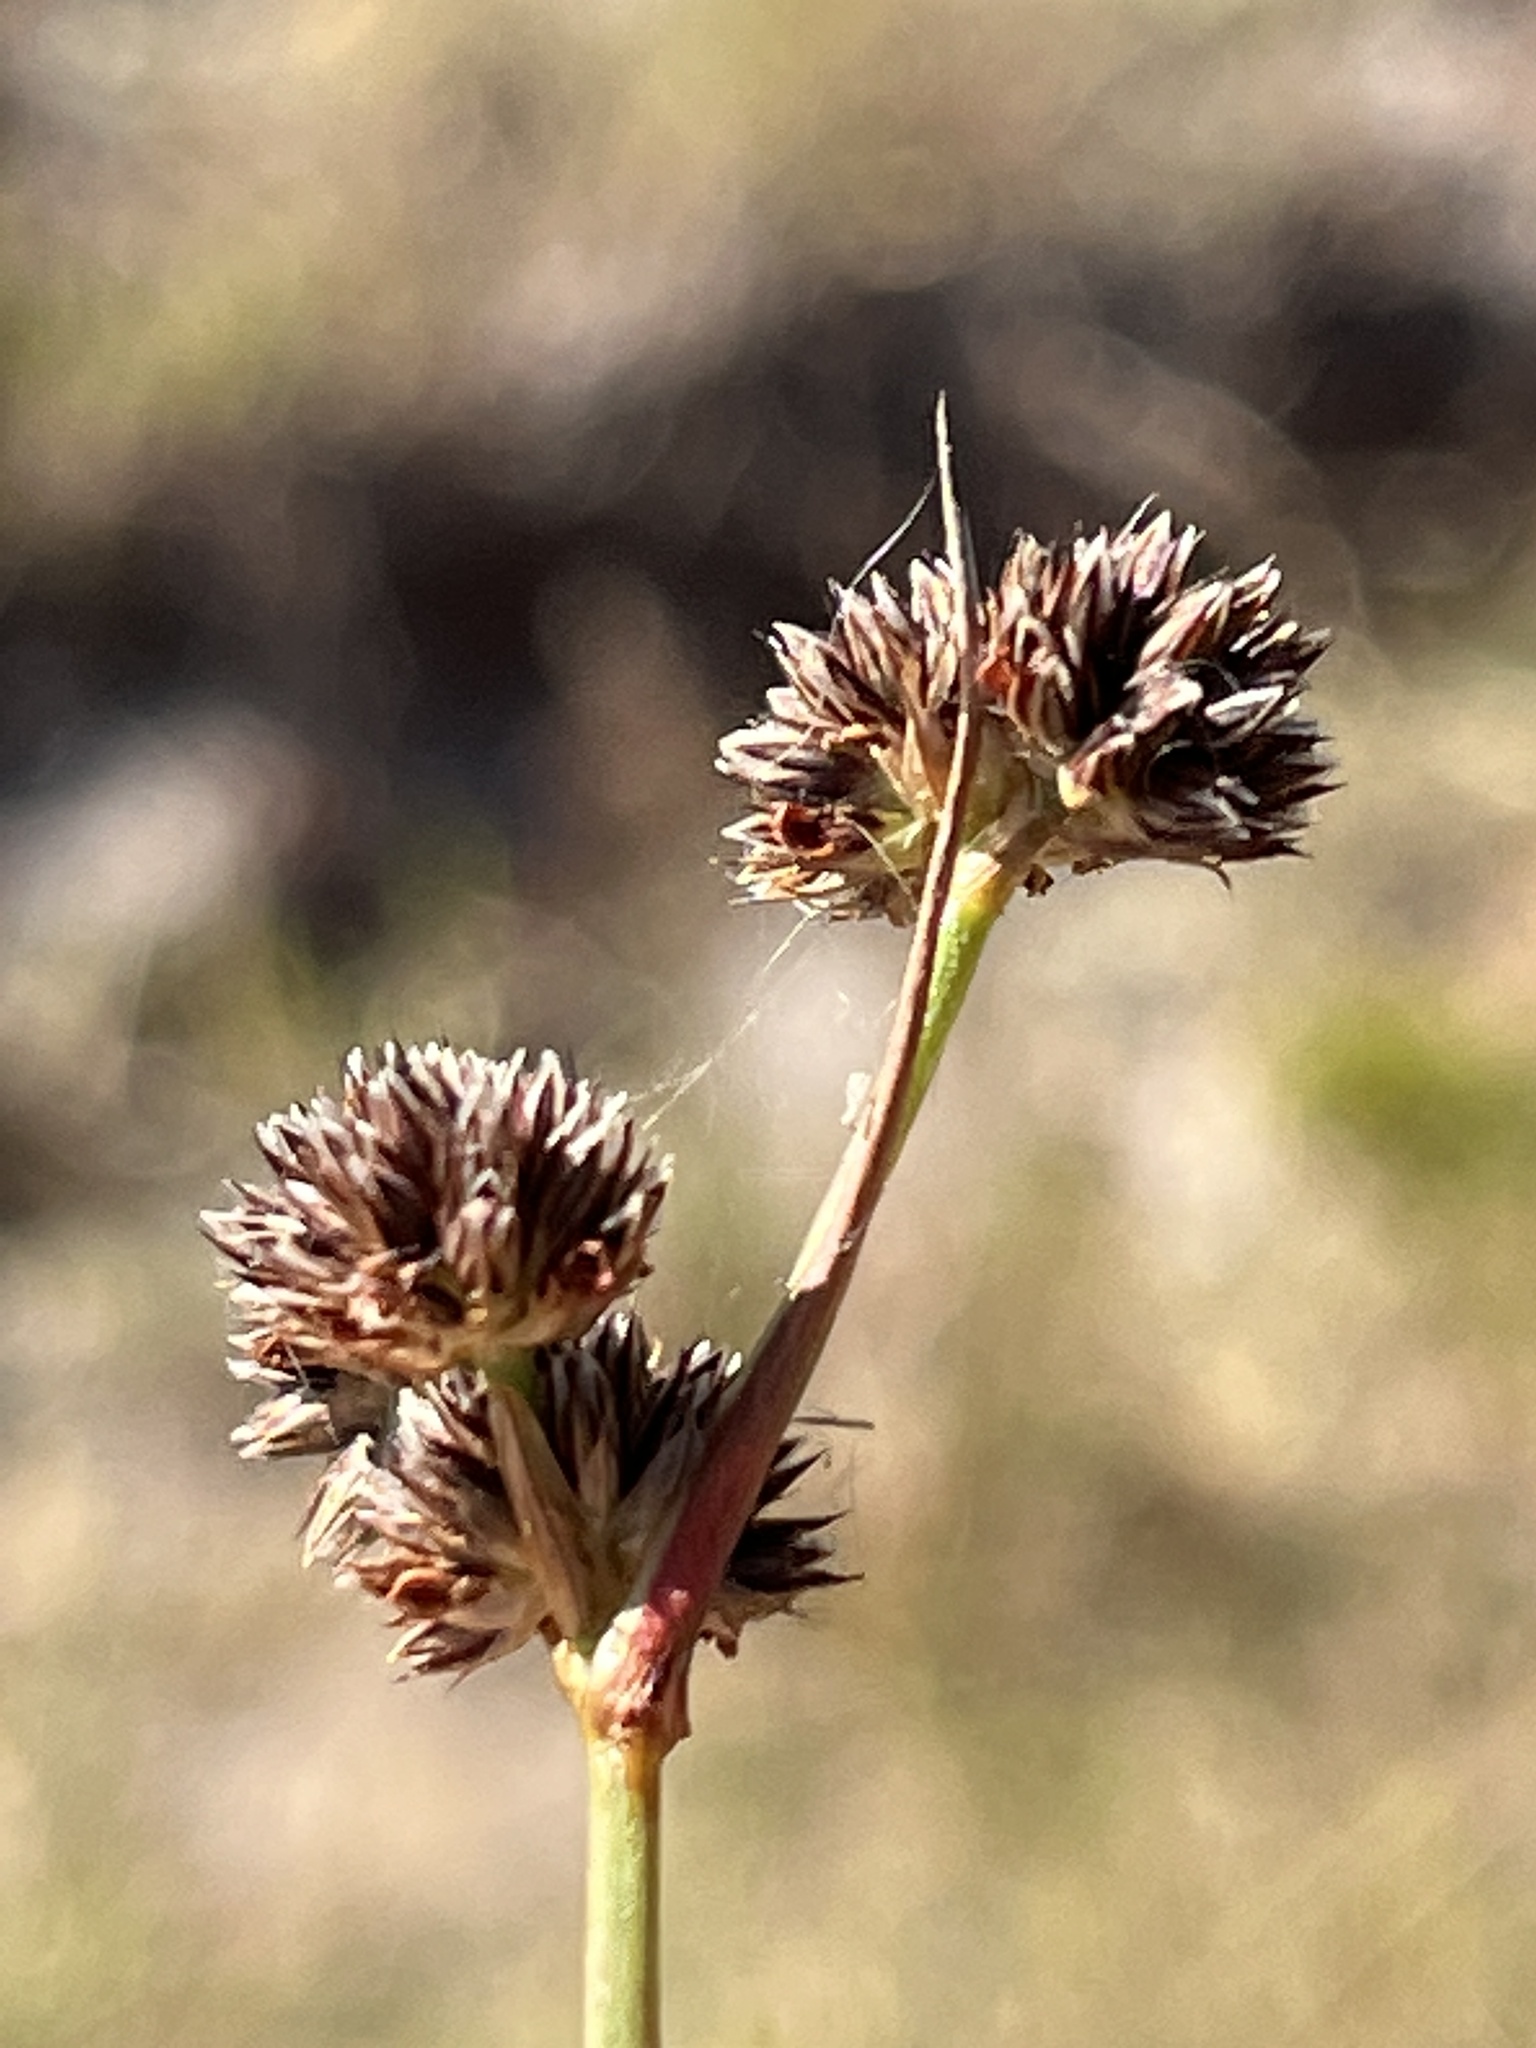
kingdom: Plantae
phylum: Tracheophyta
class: Liliopsida
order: Poales
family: Juncaceae
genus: Juncus
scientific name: Juncus oxycarpus
